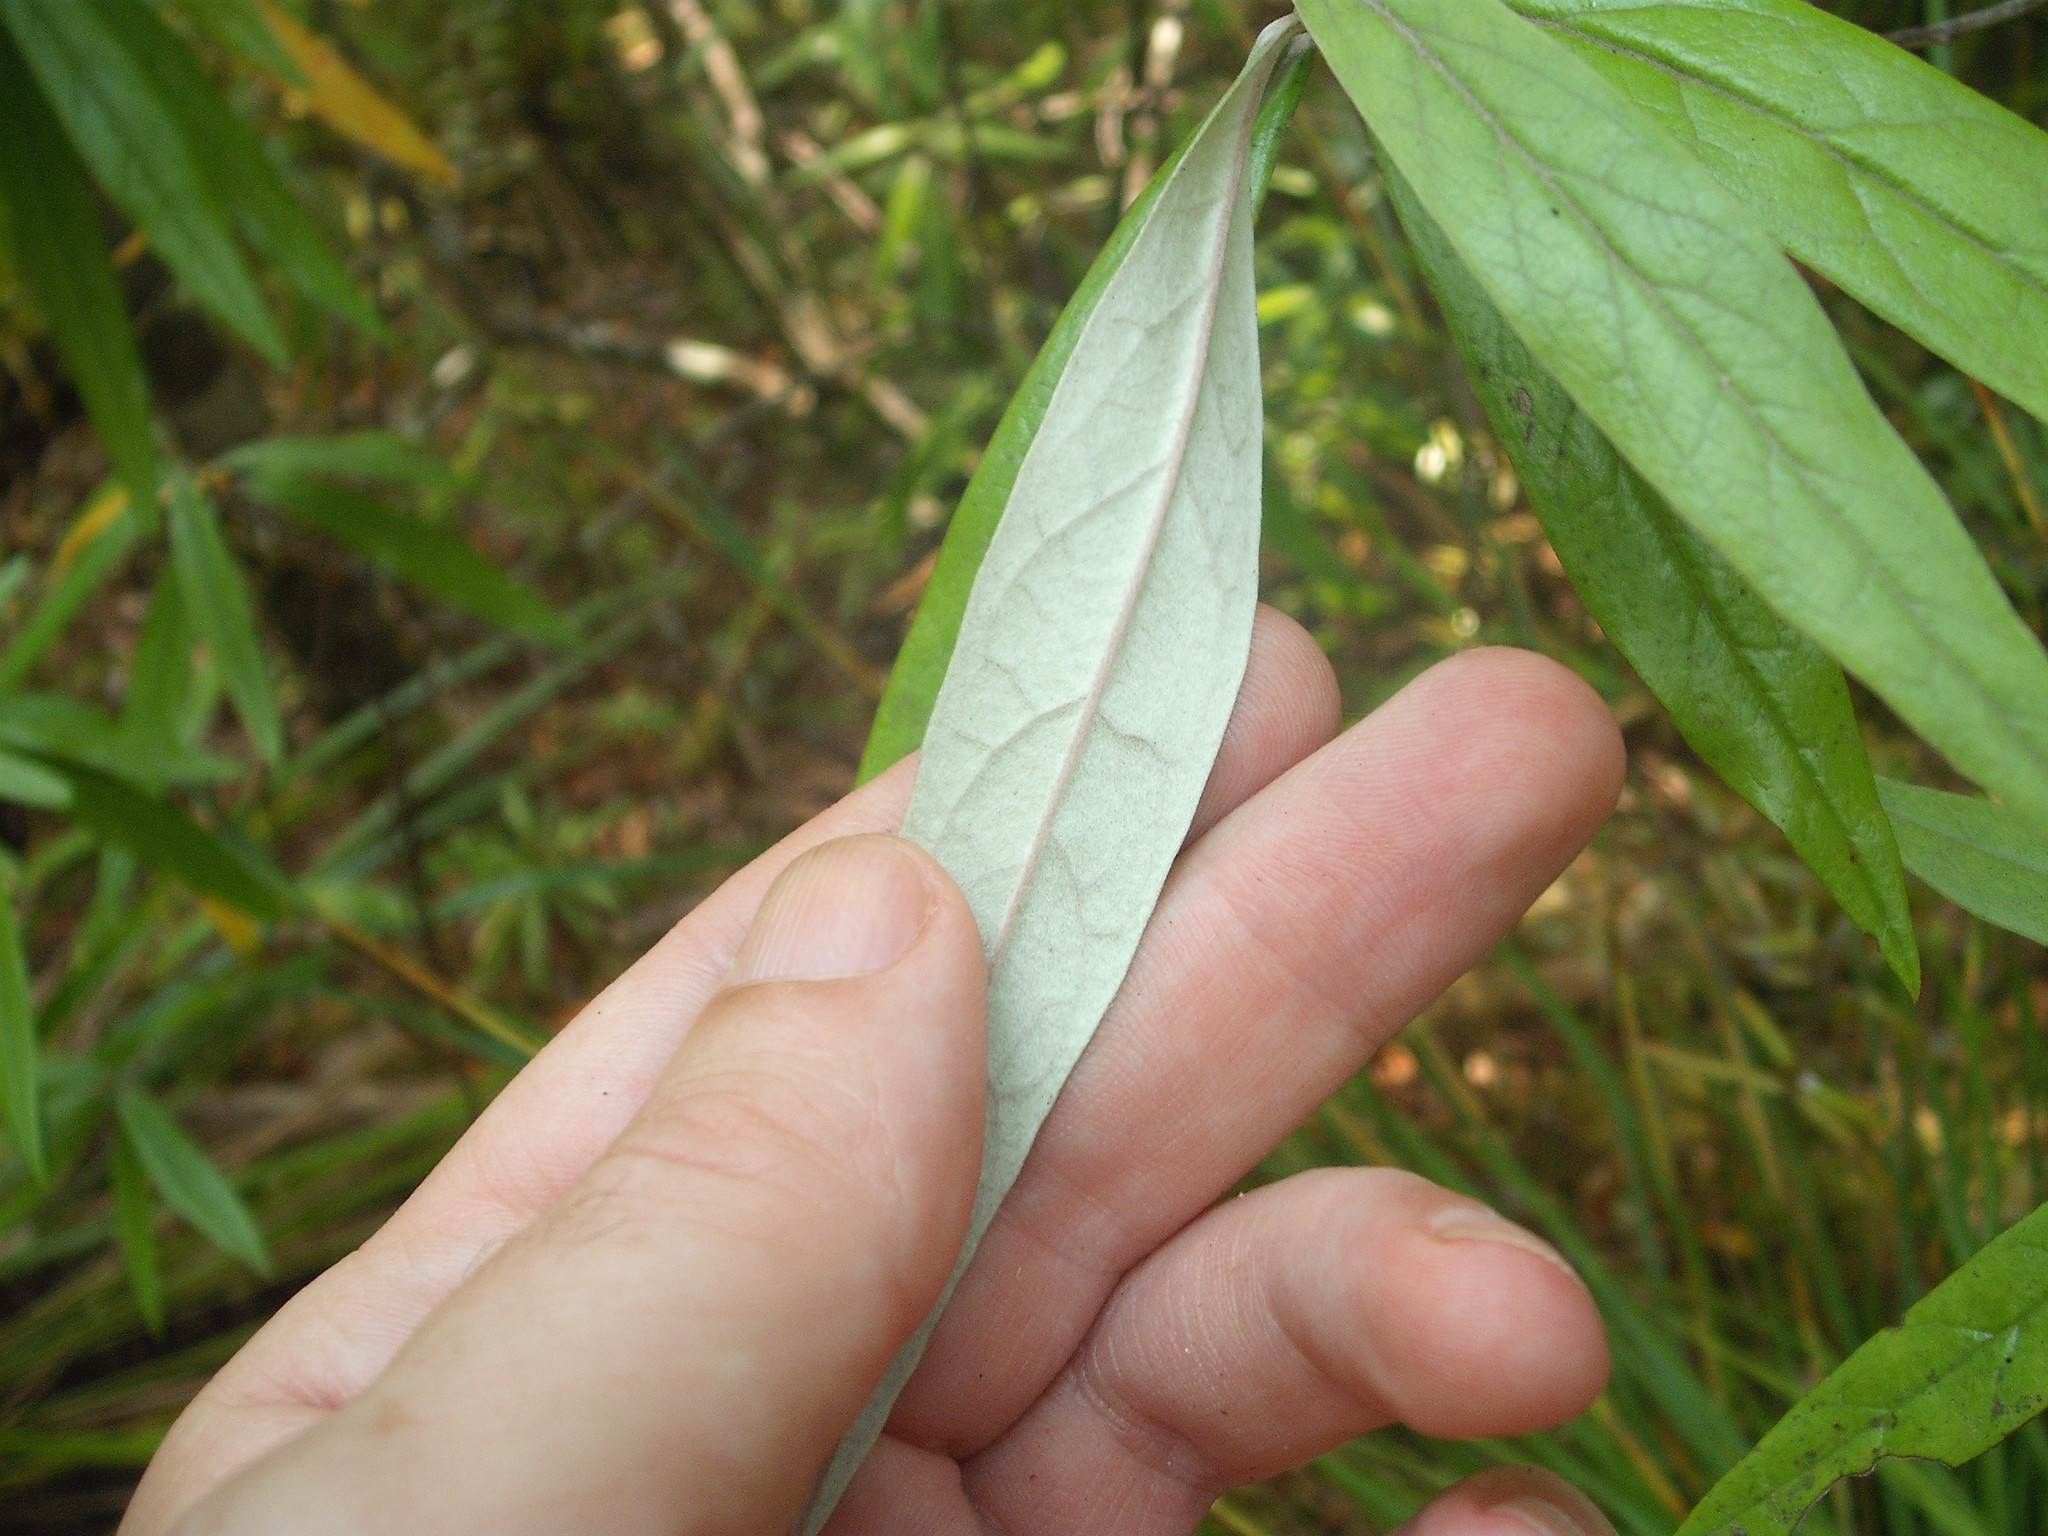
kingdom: Plantae
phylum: Tracheophyta
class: Magnoliopsida
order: Asterales
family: Argophyllaceae
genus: Corokia
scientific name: Corokia buddleioides
